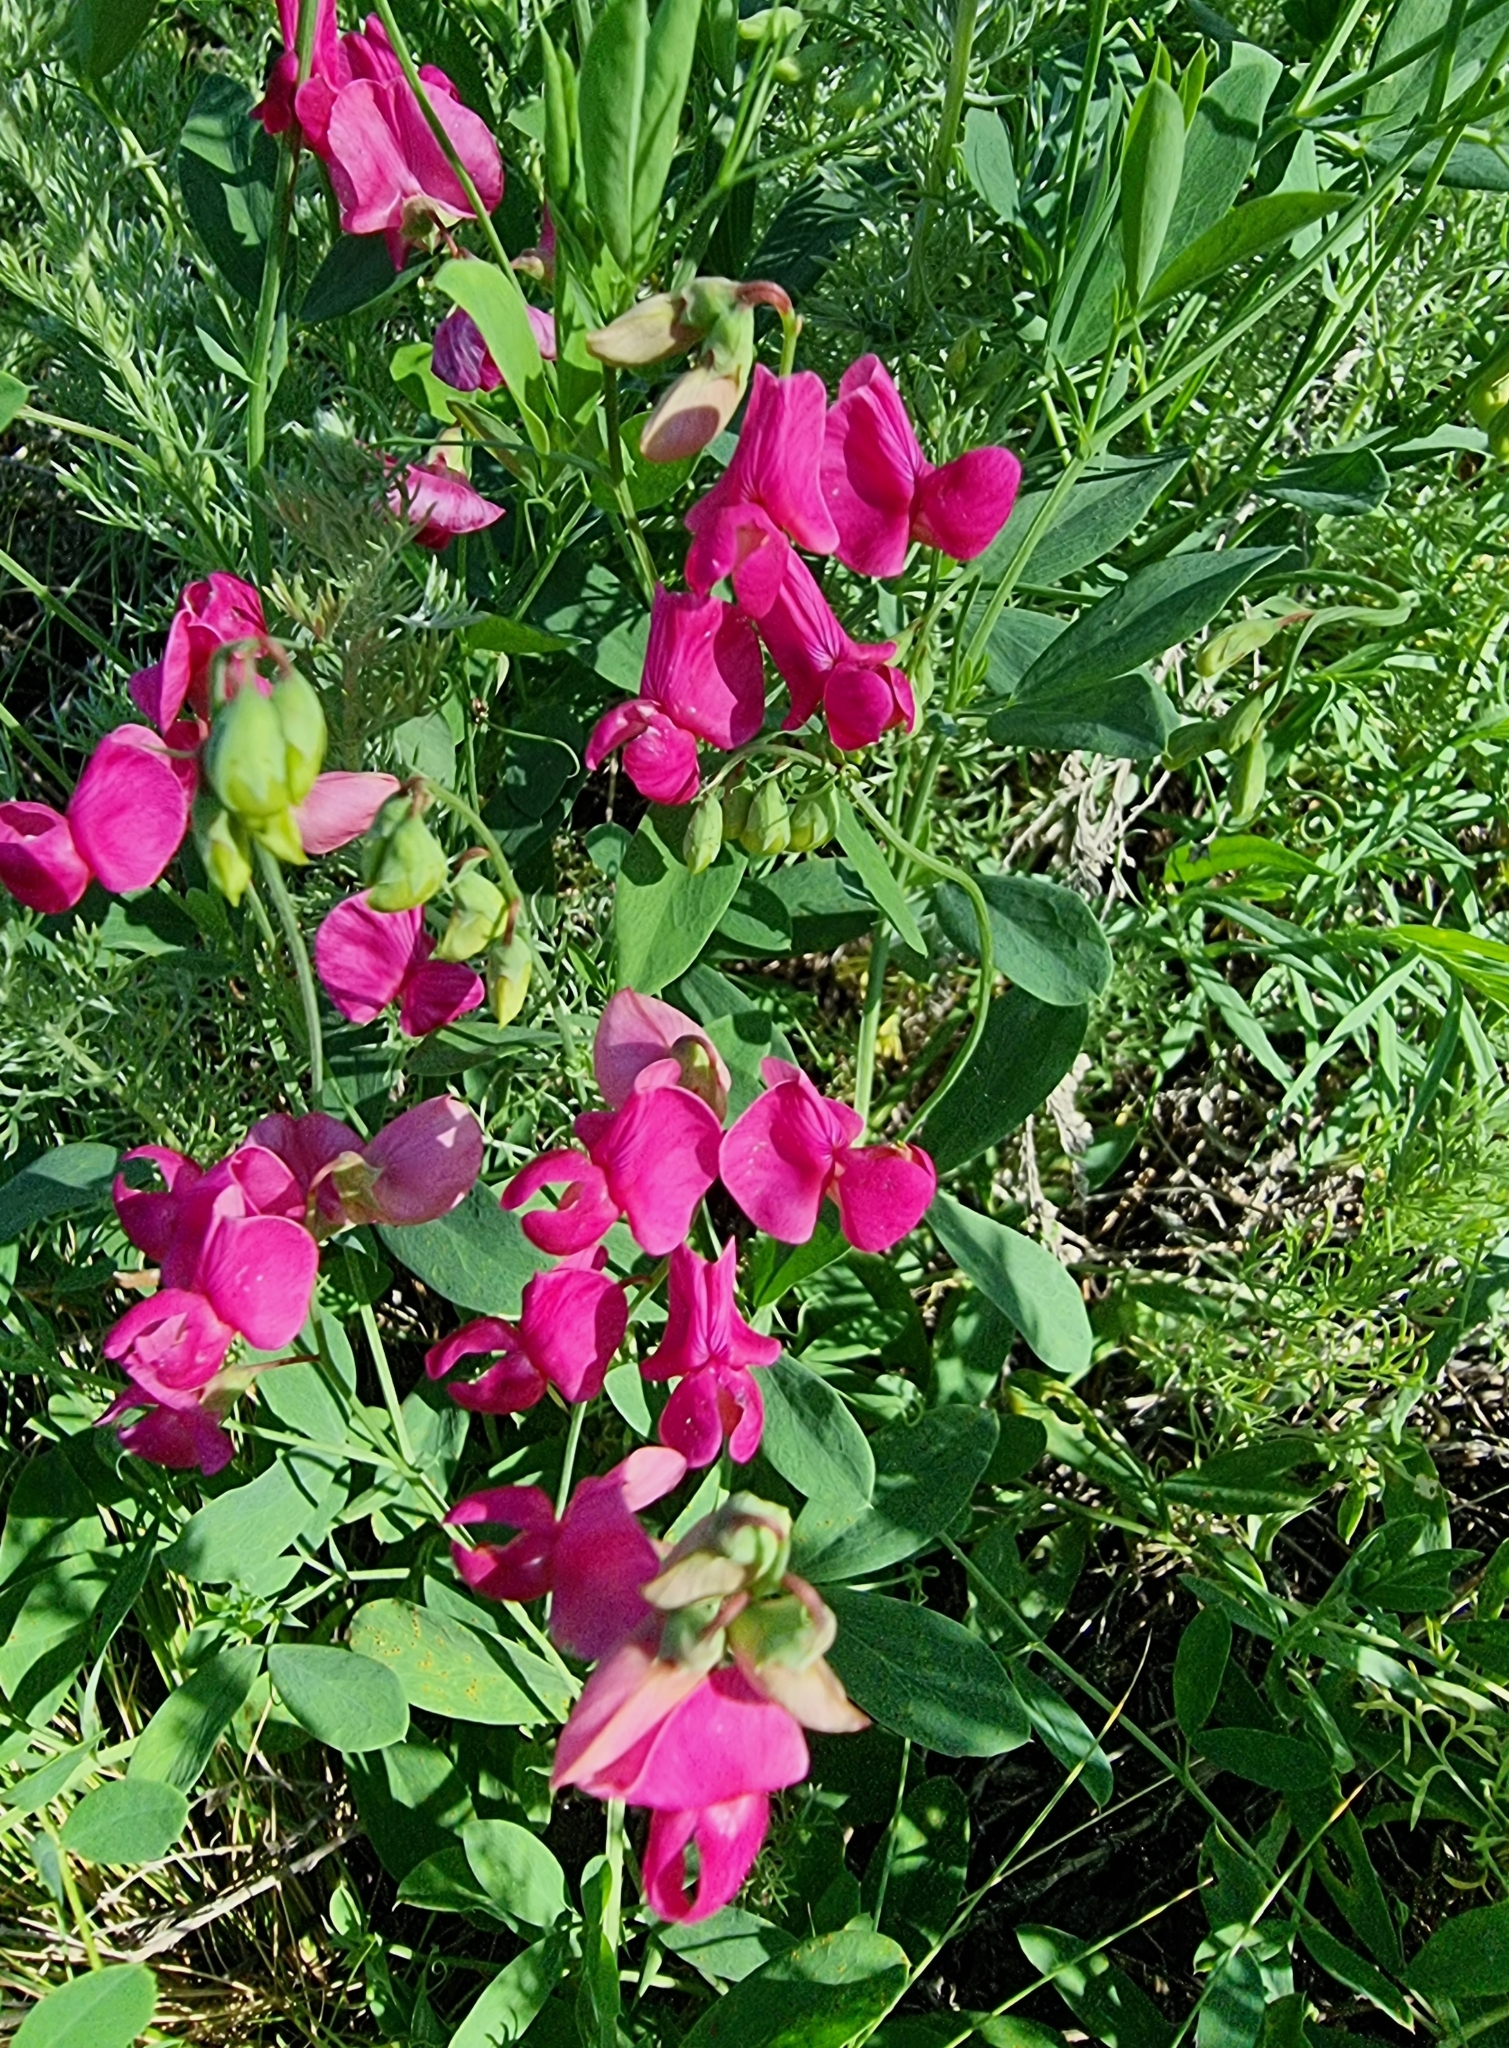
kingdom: Plantae
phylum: Tracheophyta
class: Magnoliopsida
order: Fabales
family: Fabaceae
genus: Lathyrus
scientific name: Lathyrus tuberosus
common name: Tuberous pea
